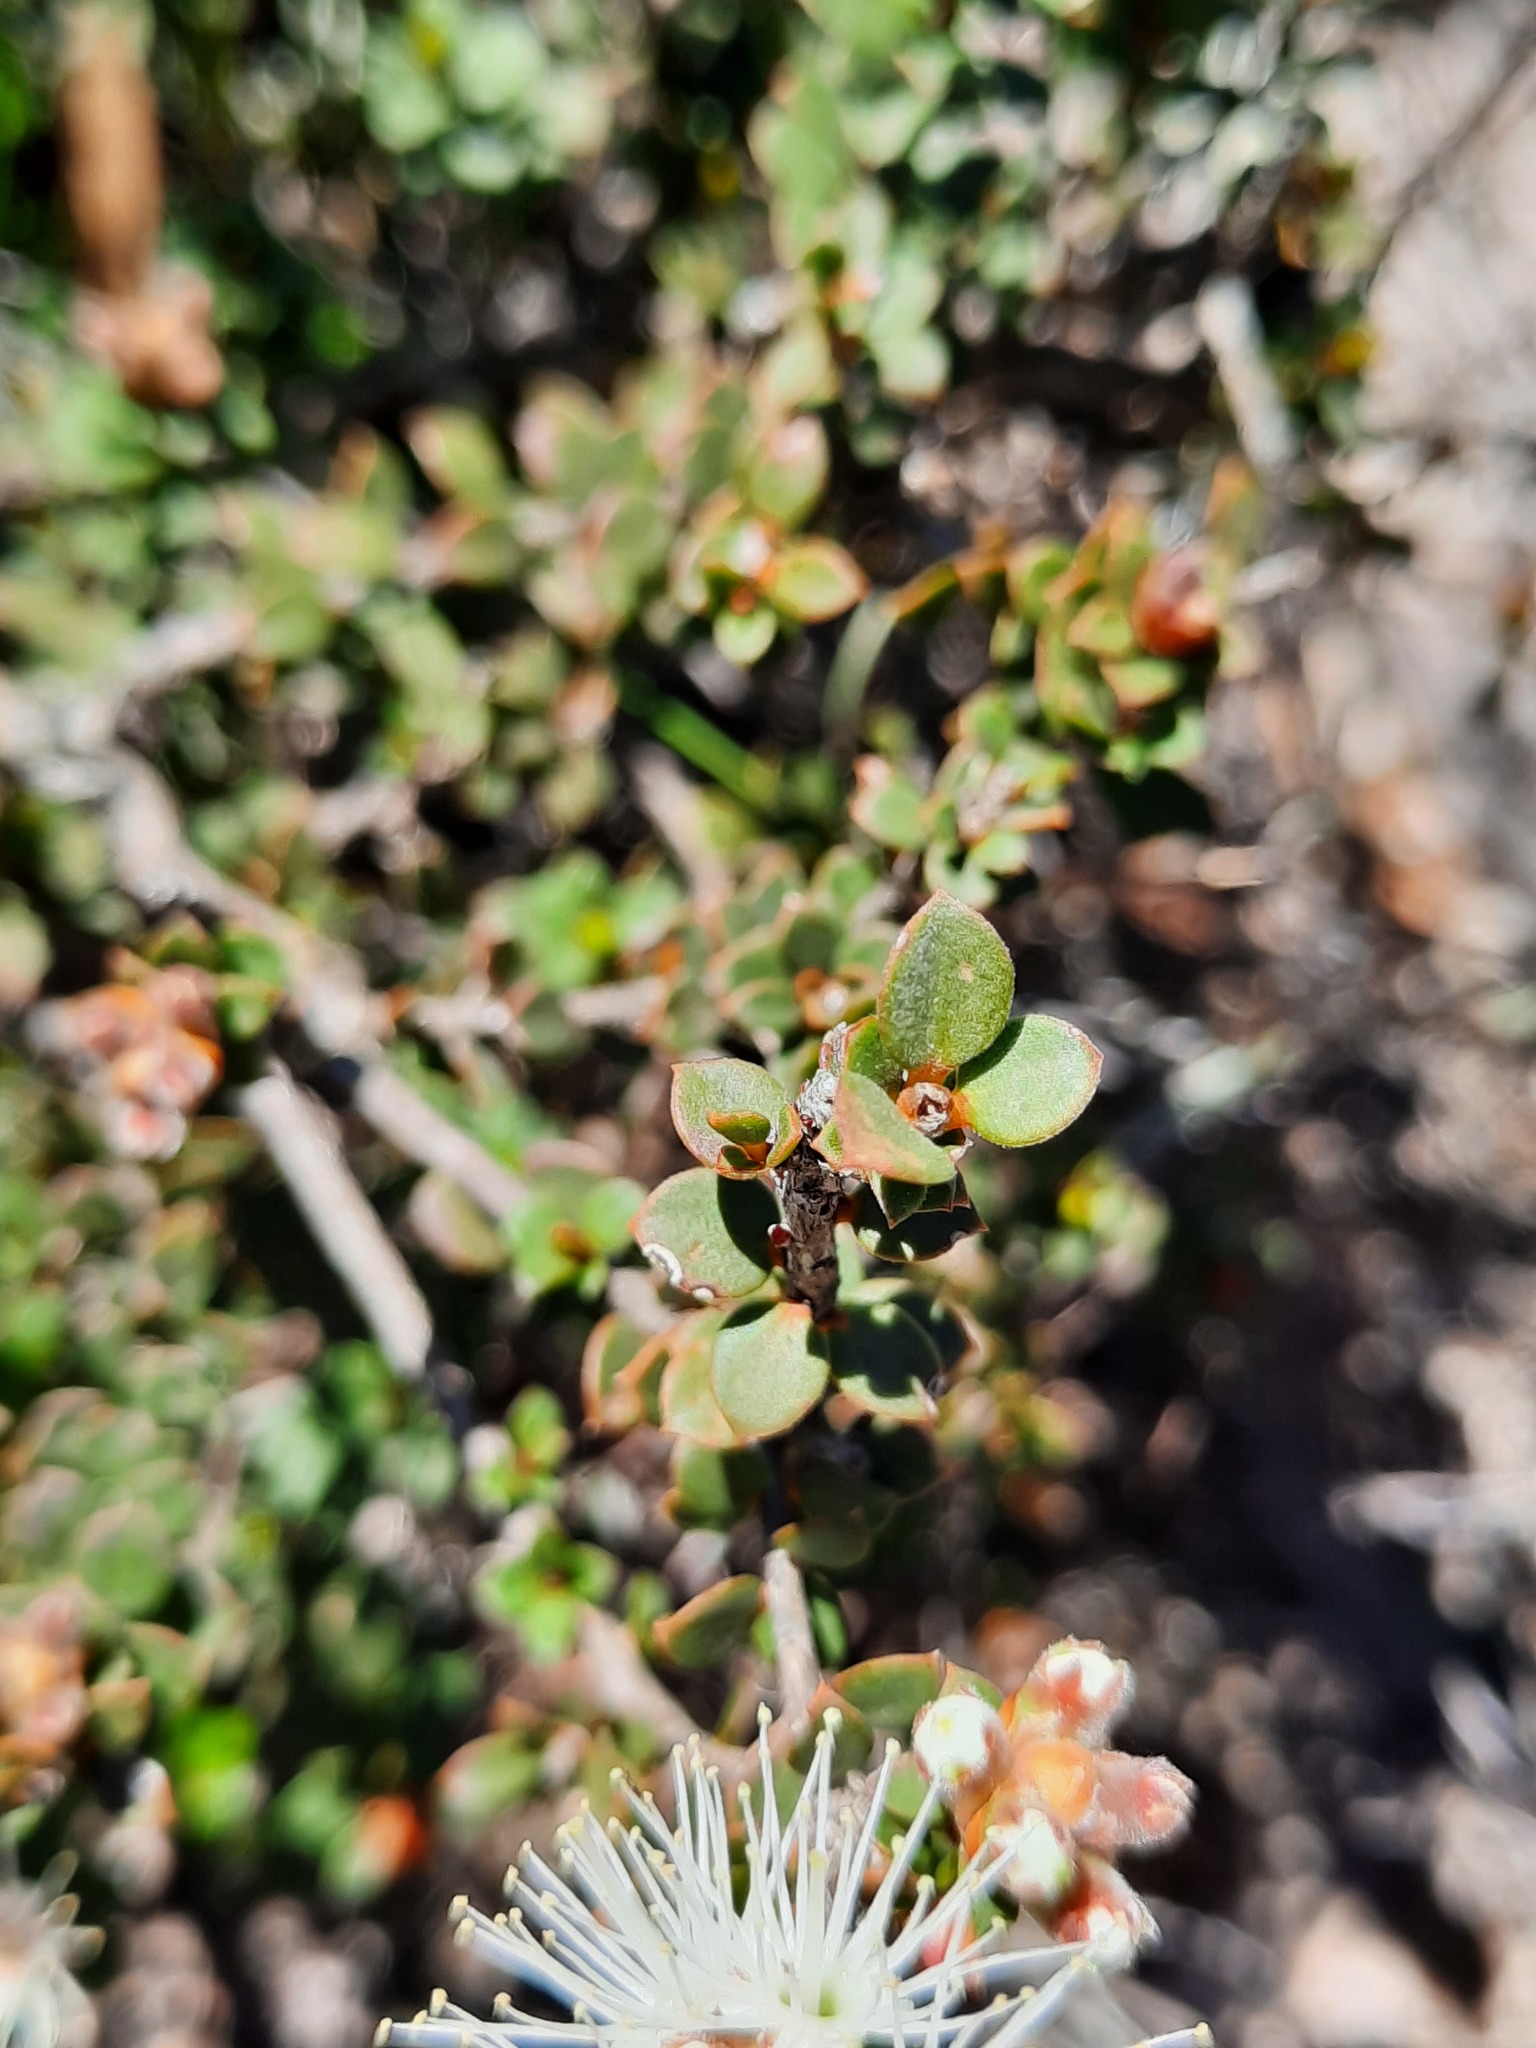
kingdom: Plantae
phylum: Tracheophyta
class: Magnoliopsida
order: Myrtales
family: Myrtaceae
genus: Kunzea
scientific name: Kunzea pomifera
